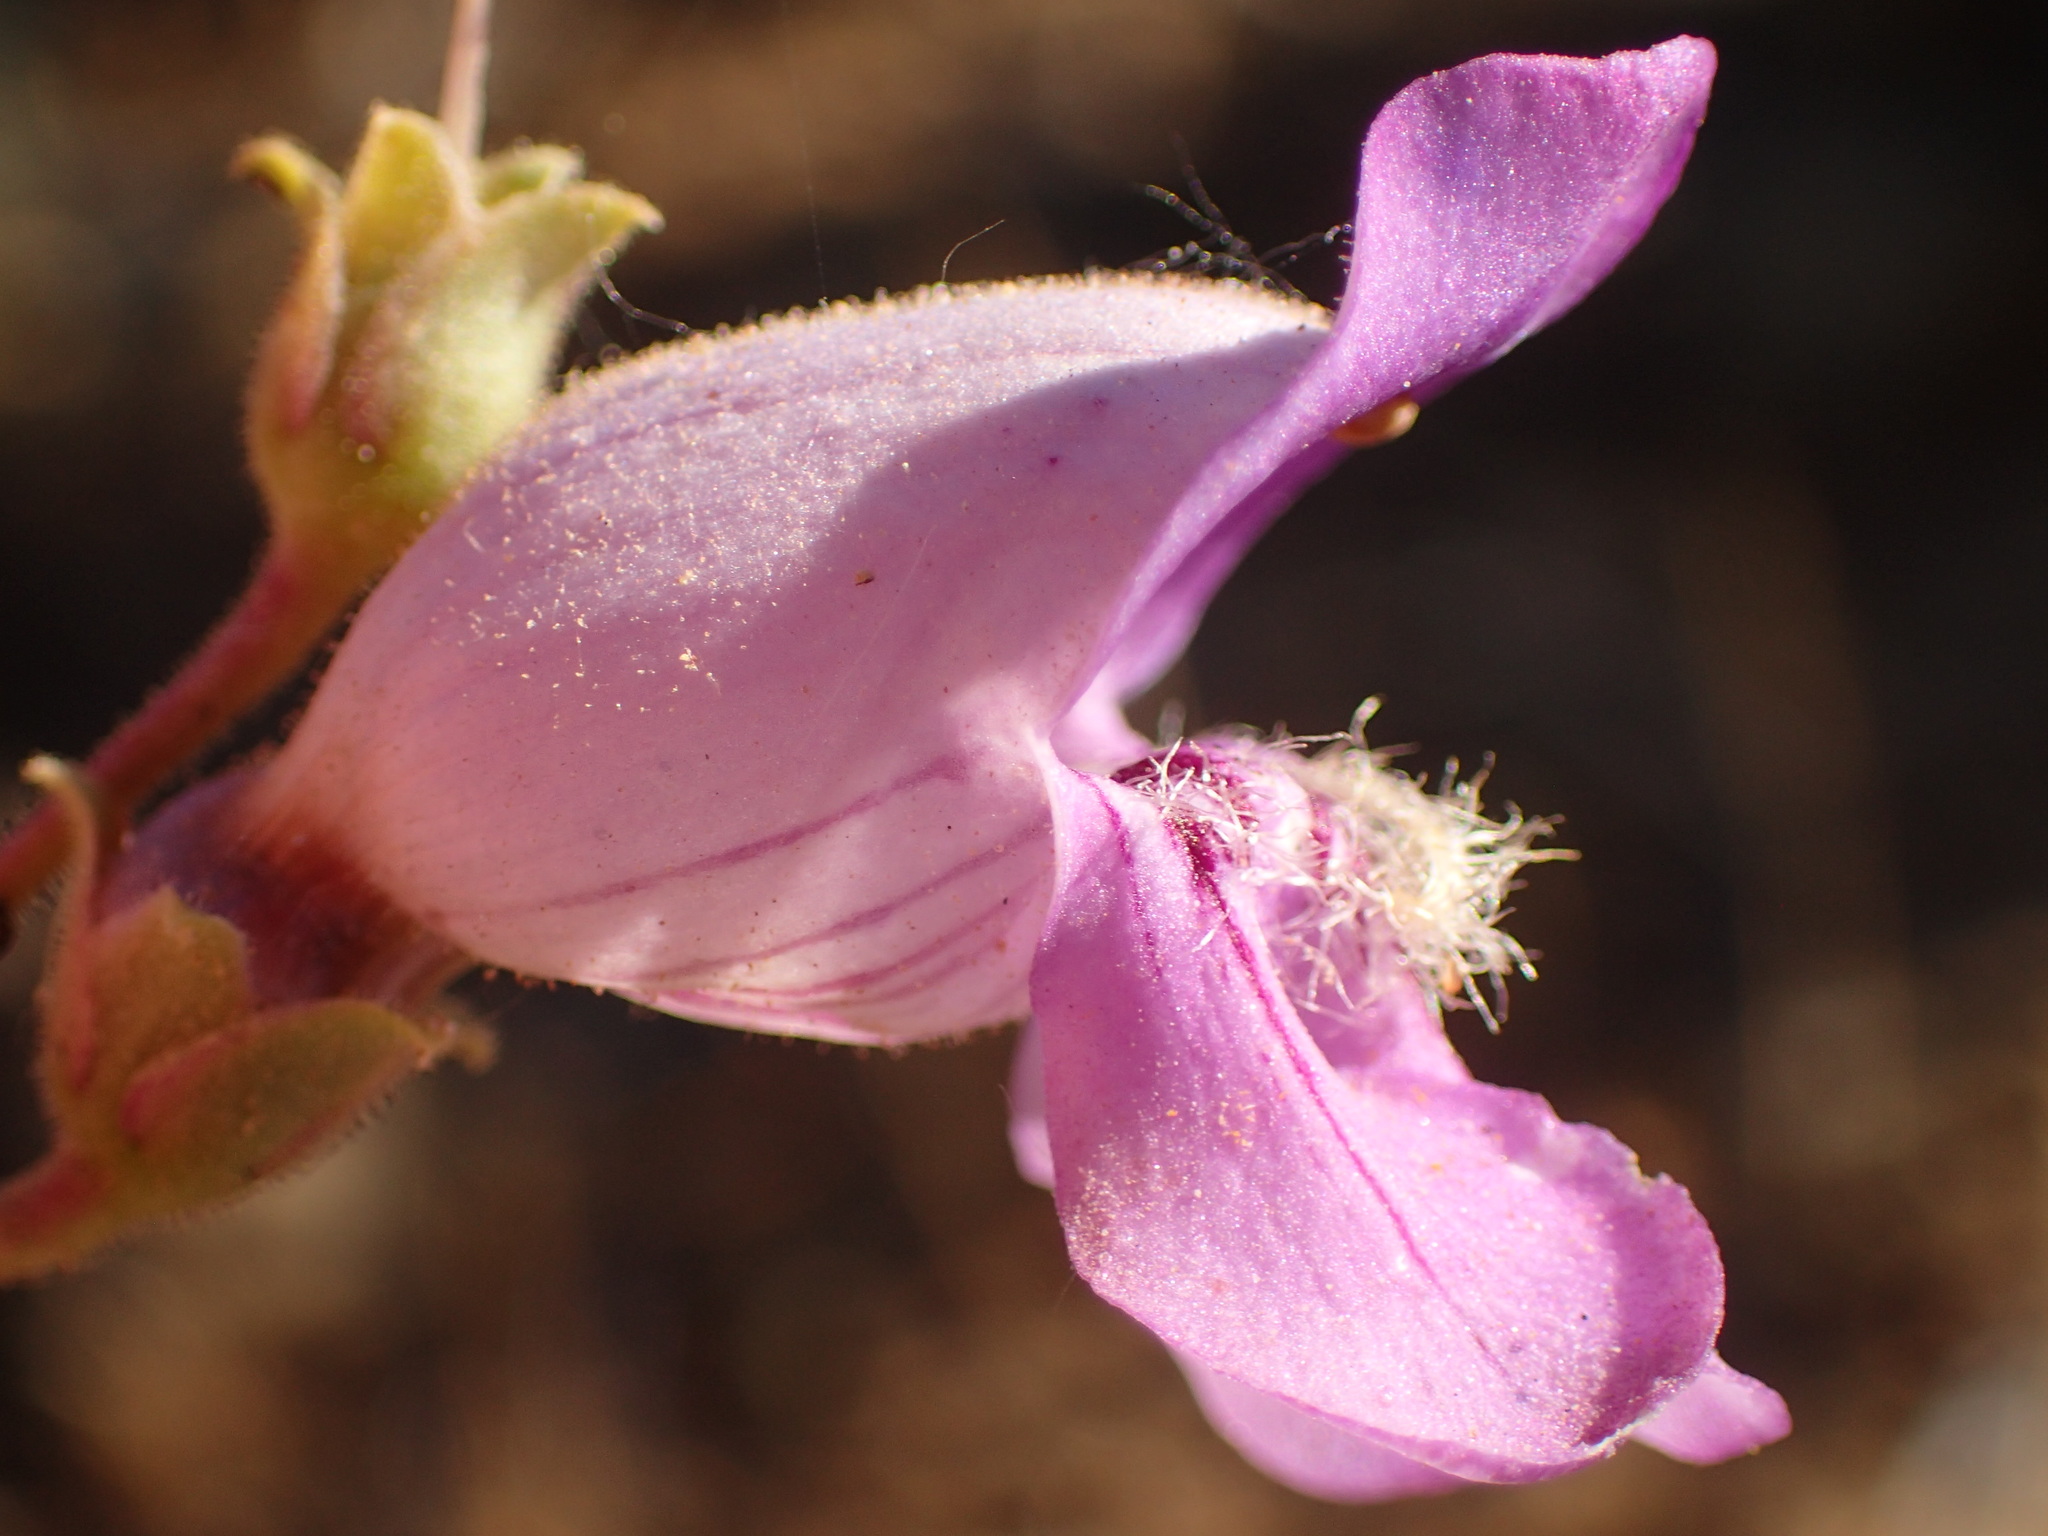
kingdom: Plantae
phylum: Tracheophyta
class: Magnoliopsida
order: Lamiales
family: Plantaginaceae
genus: Penstemon
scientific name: Penstemon grinnellii
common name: Grinnell's beardtongue
